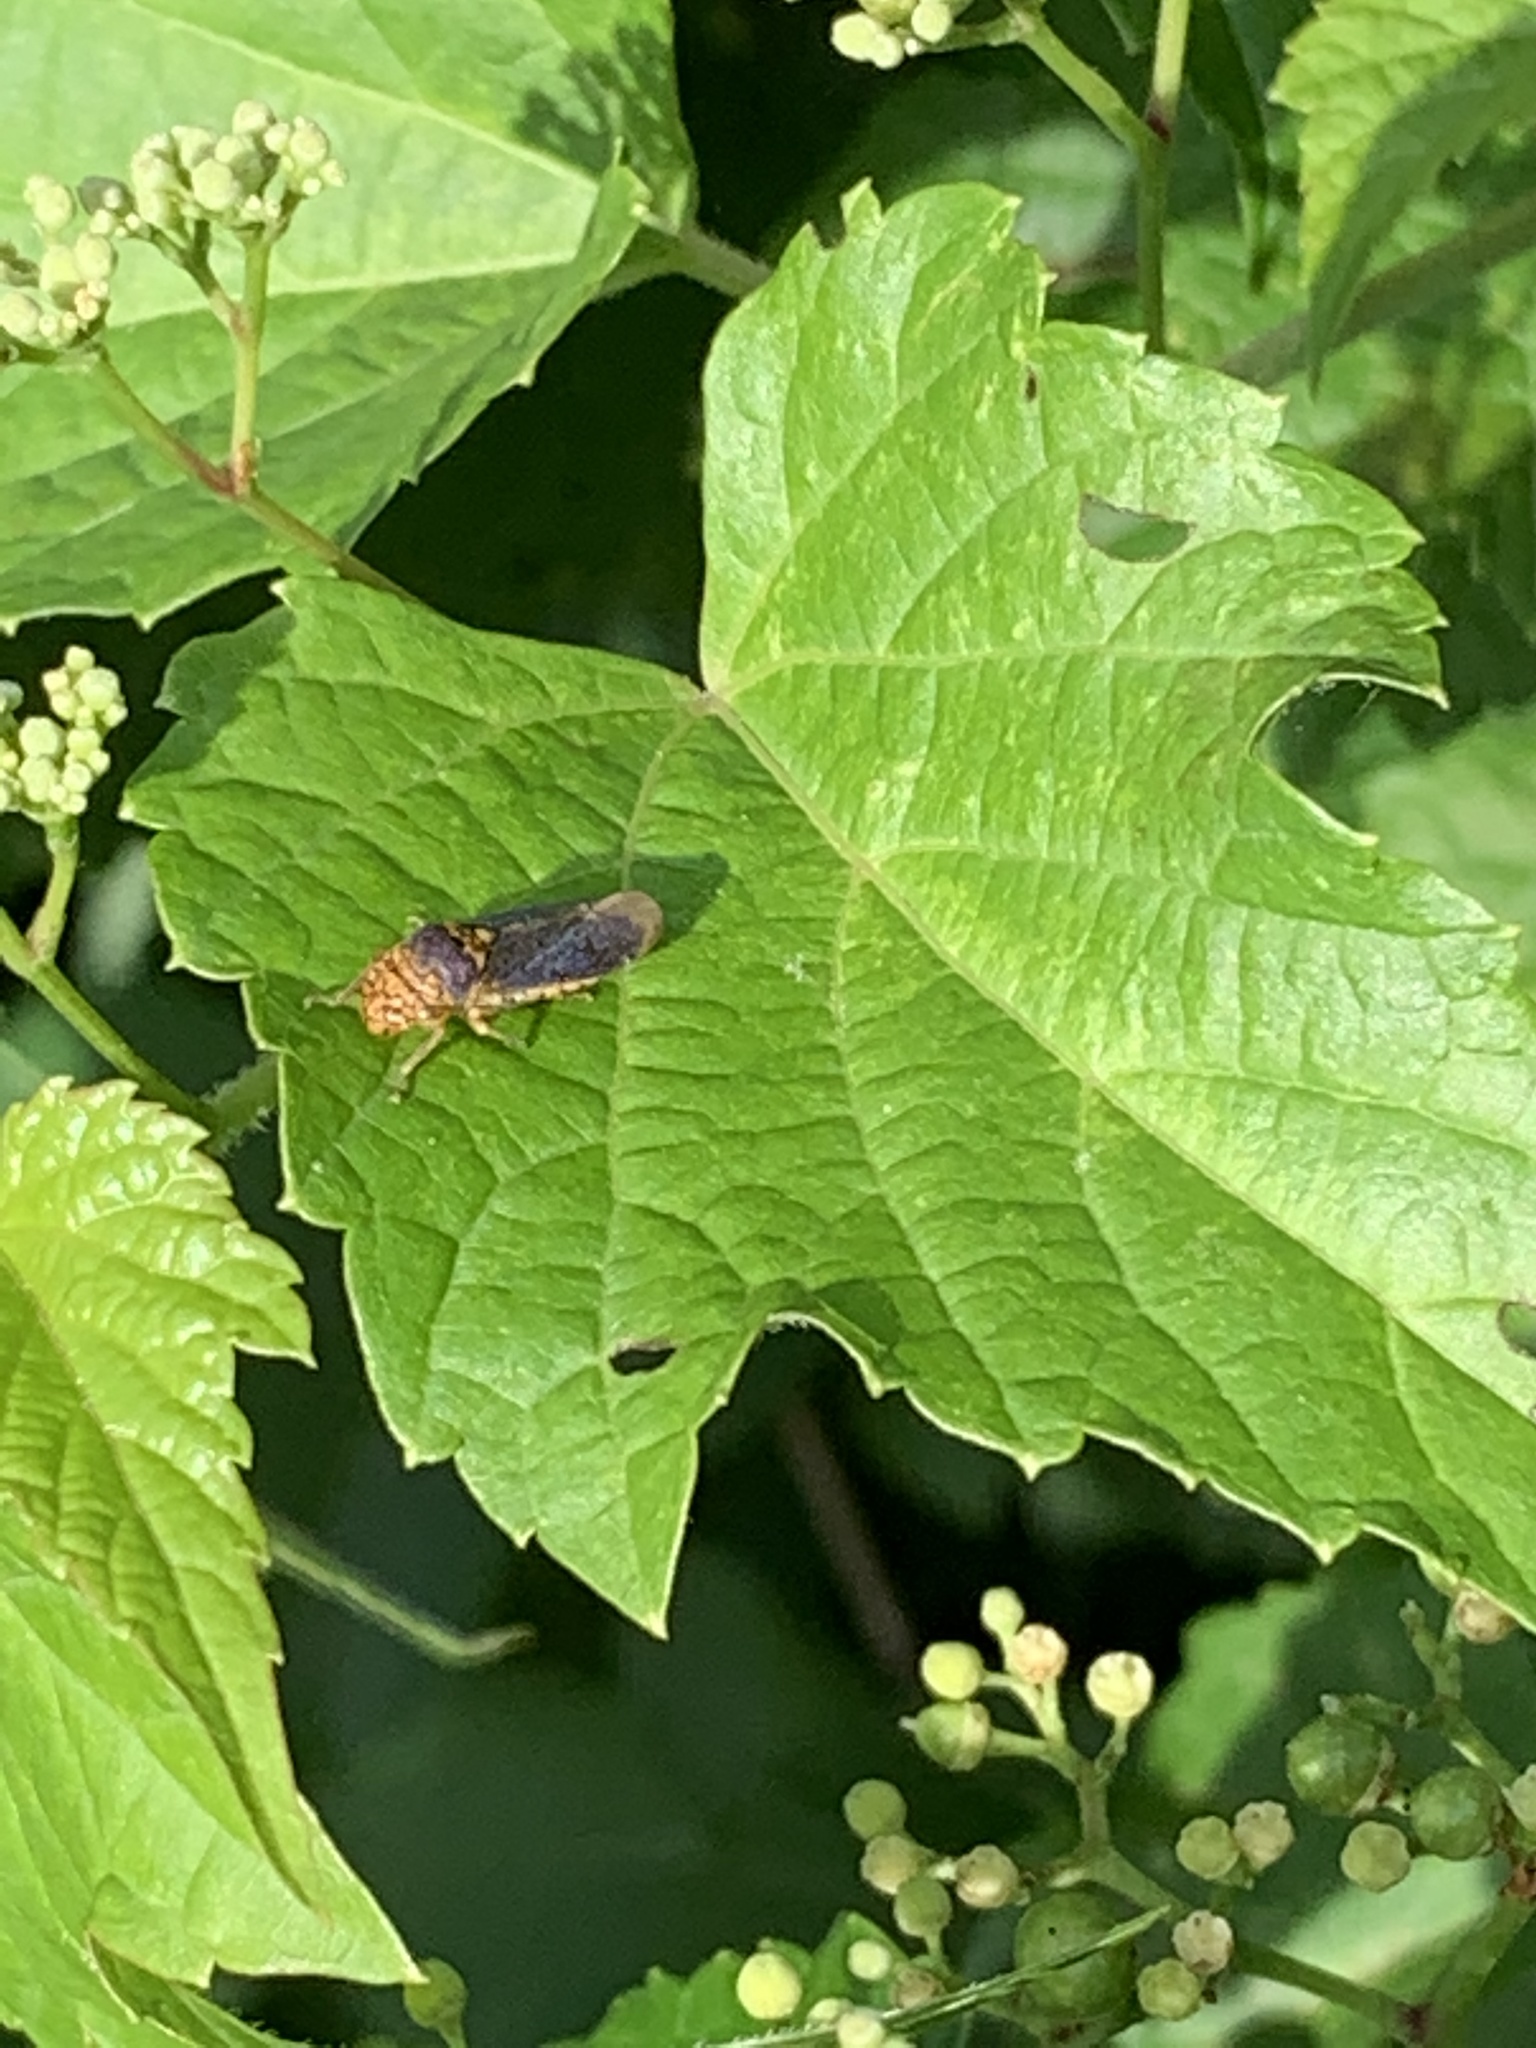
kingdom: Animalia
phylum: Arthropoda
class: Insecta
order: Hemiptera
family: Cicadellidae
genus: Oncometopia
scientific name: Oncometopia orbona
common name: Broad-headed sharpshooter
